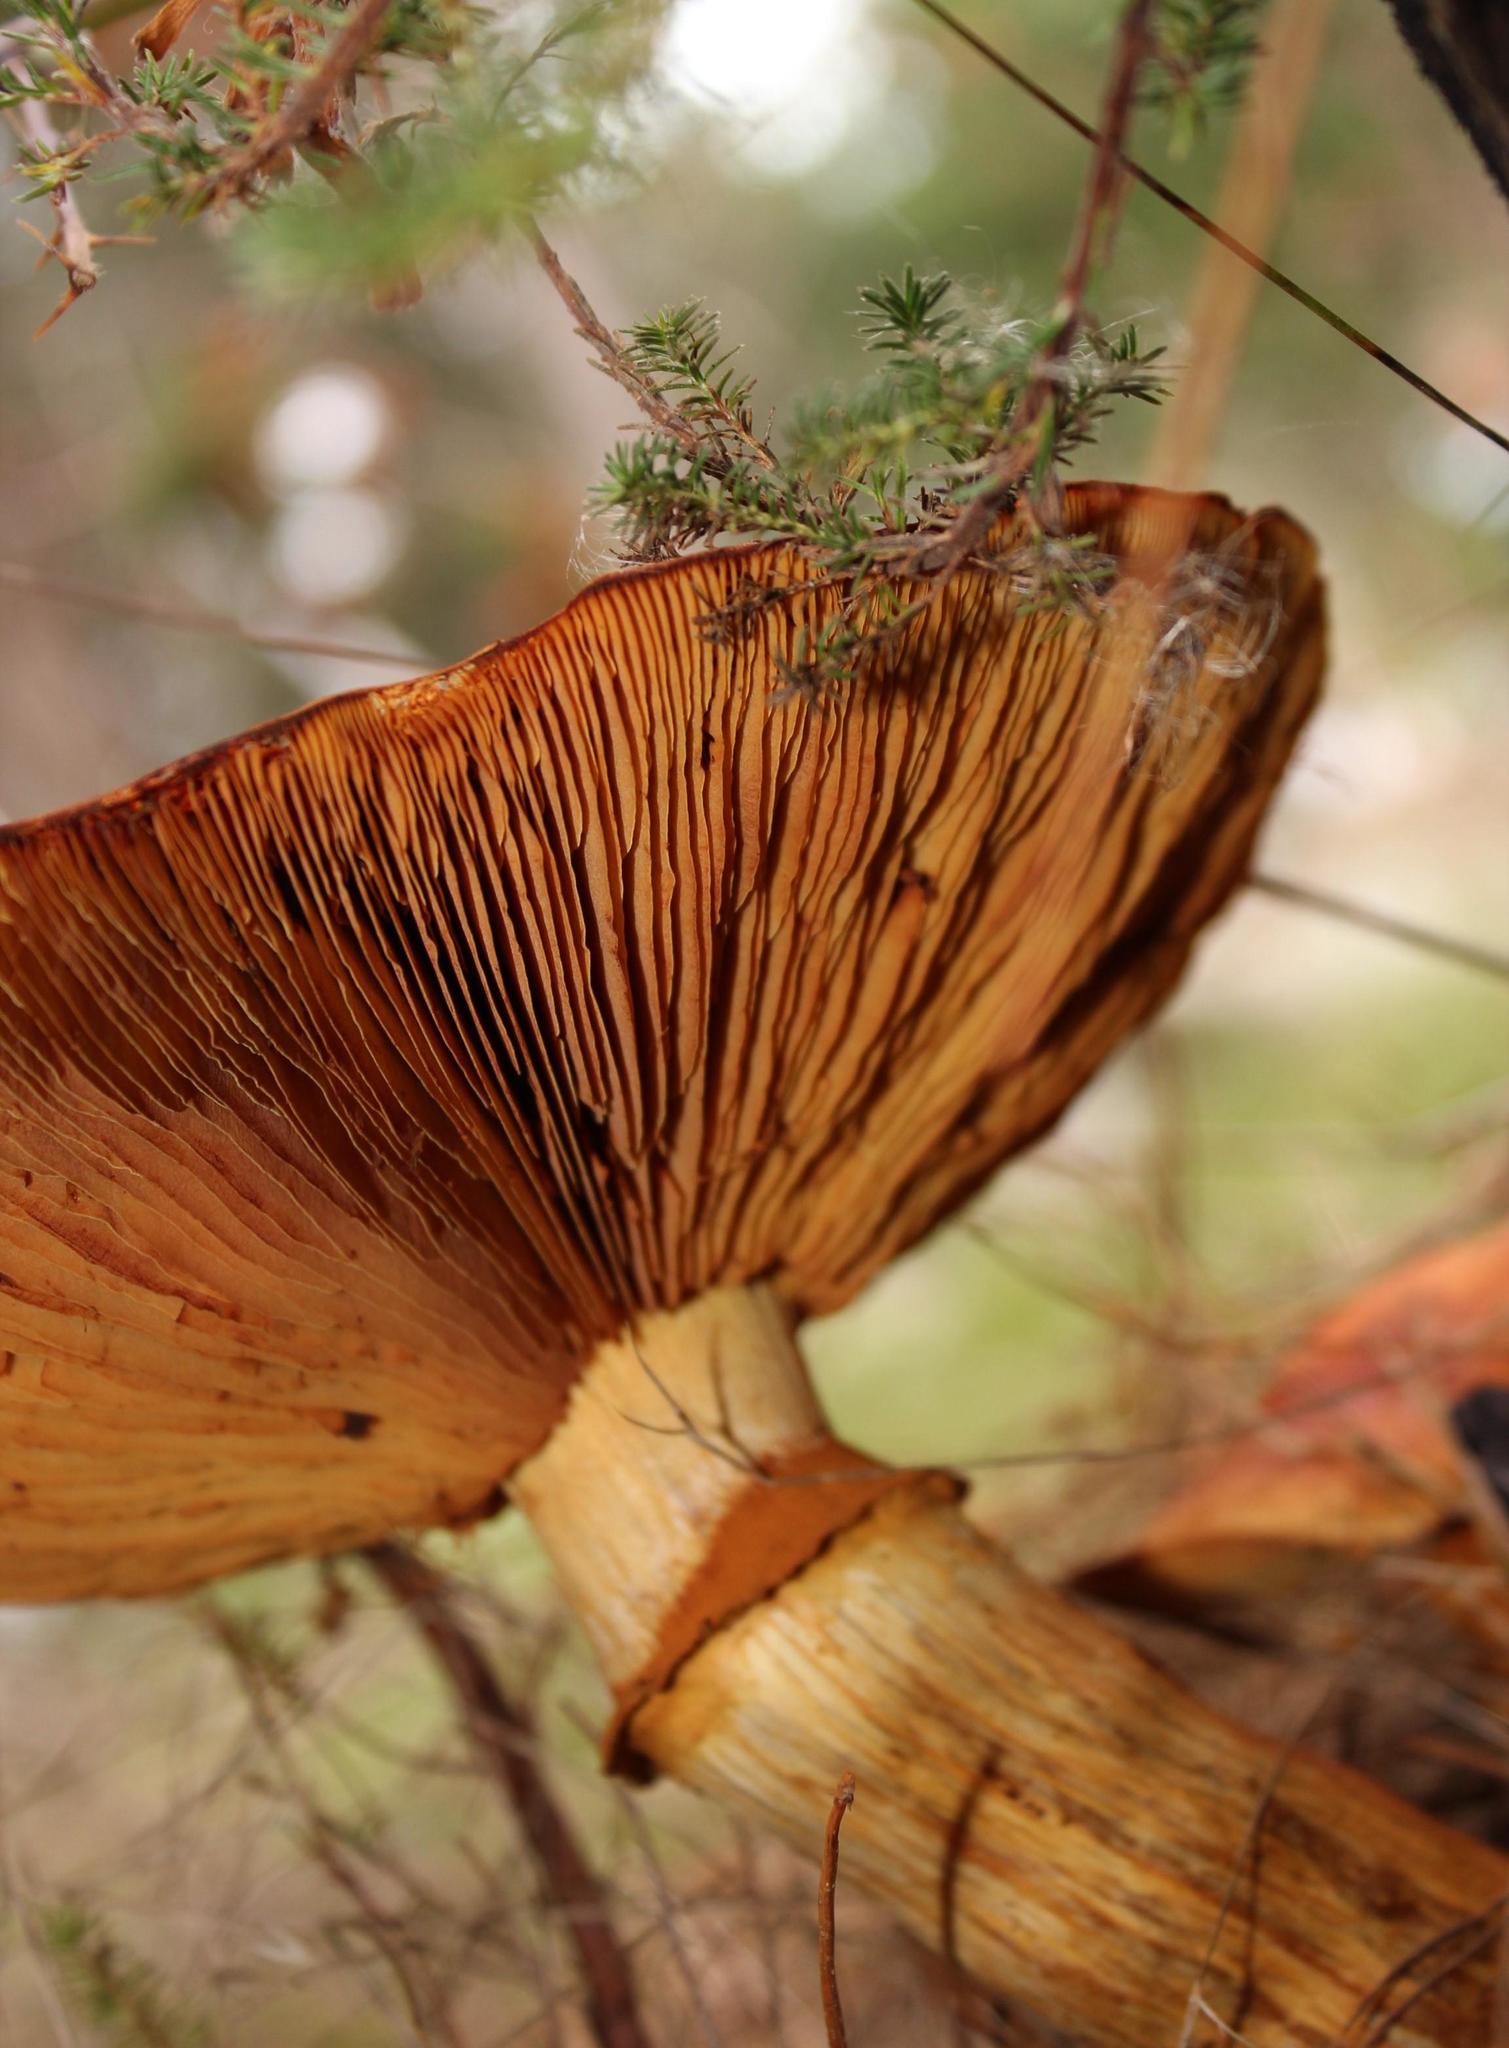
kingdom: Fungi
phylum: Basidiomycota
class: Agaricomycetes
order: Agaricales
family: Hymenogastraceae
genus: Gymnopilus
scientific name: Gymnopilus junonius
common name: Spectacular rustgill
